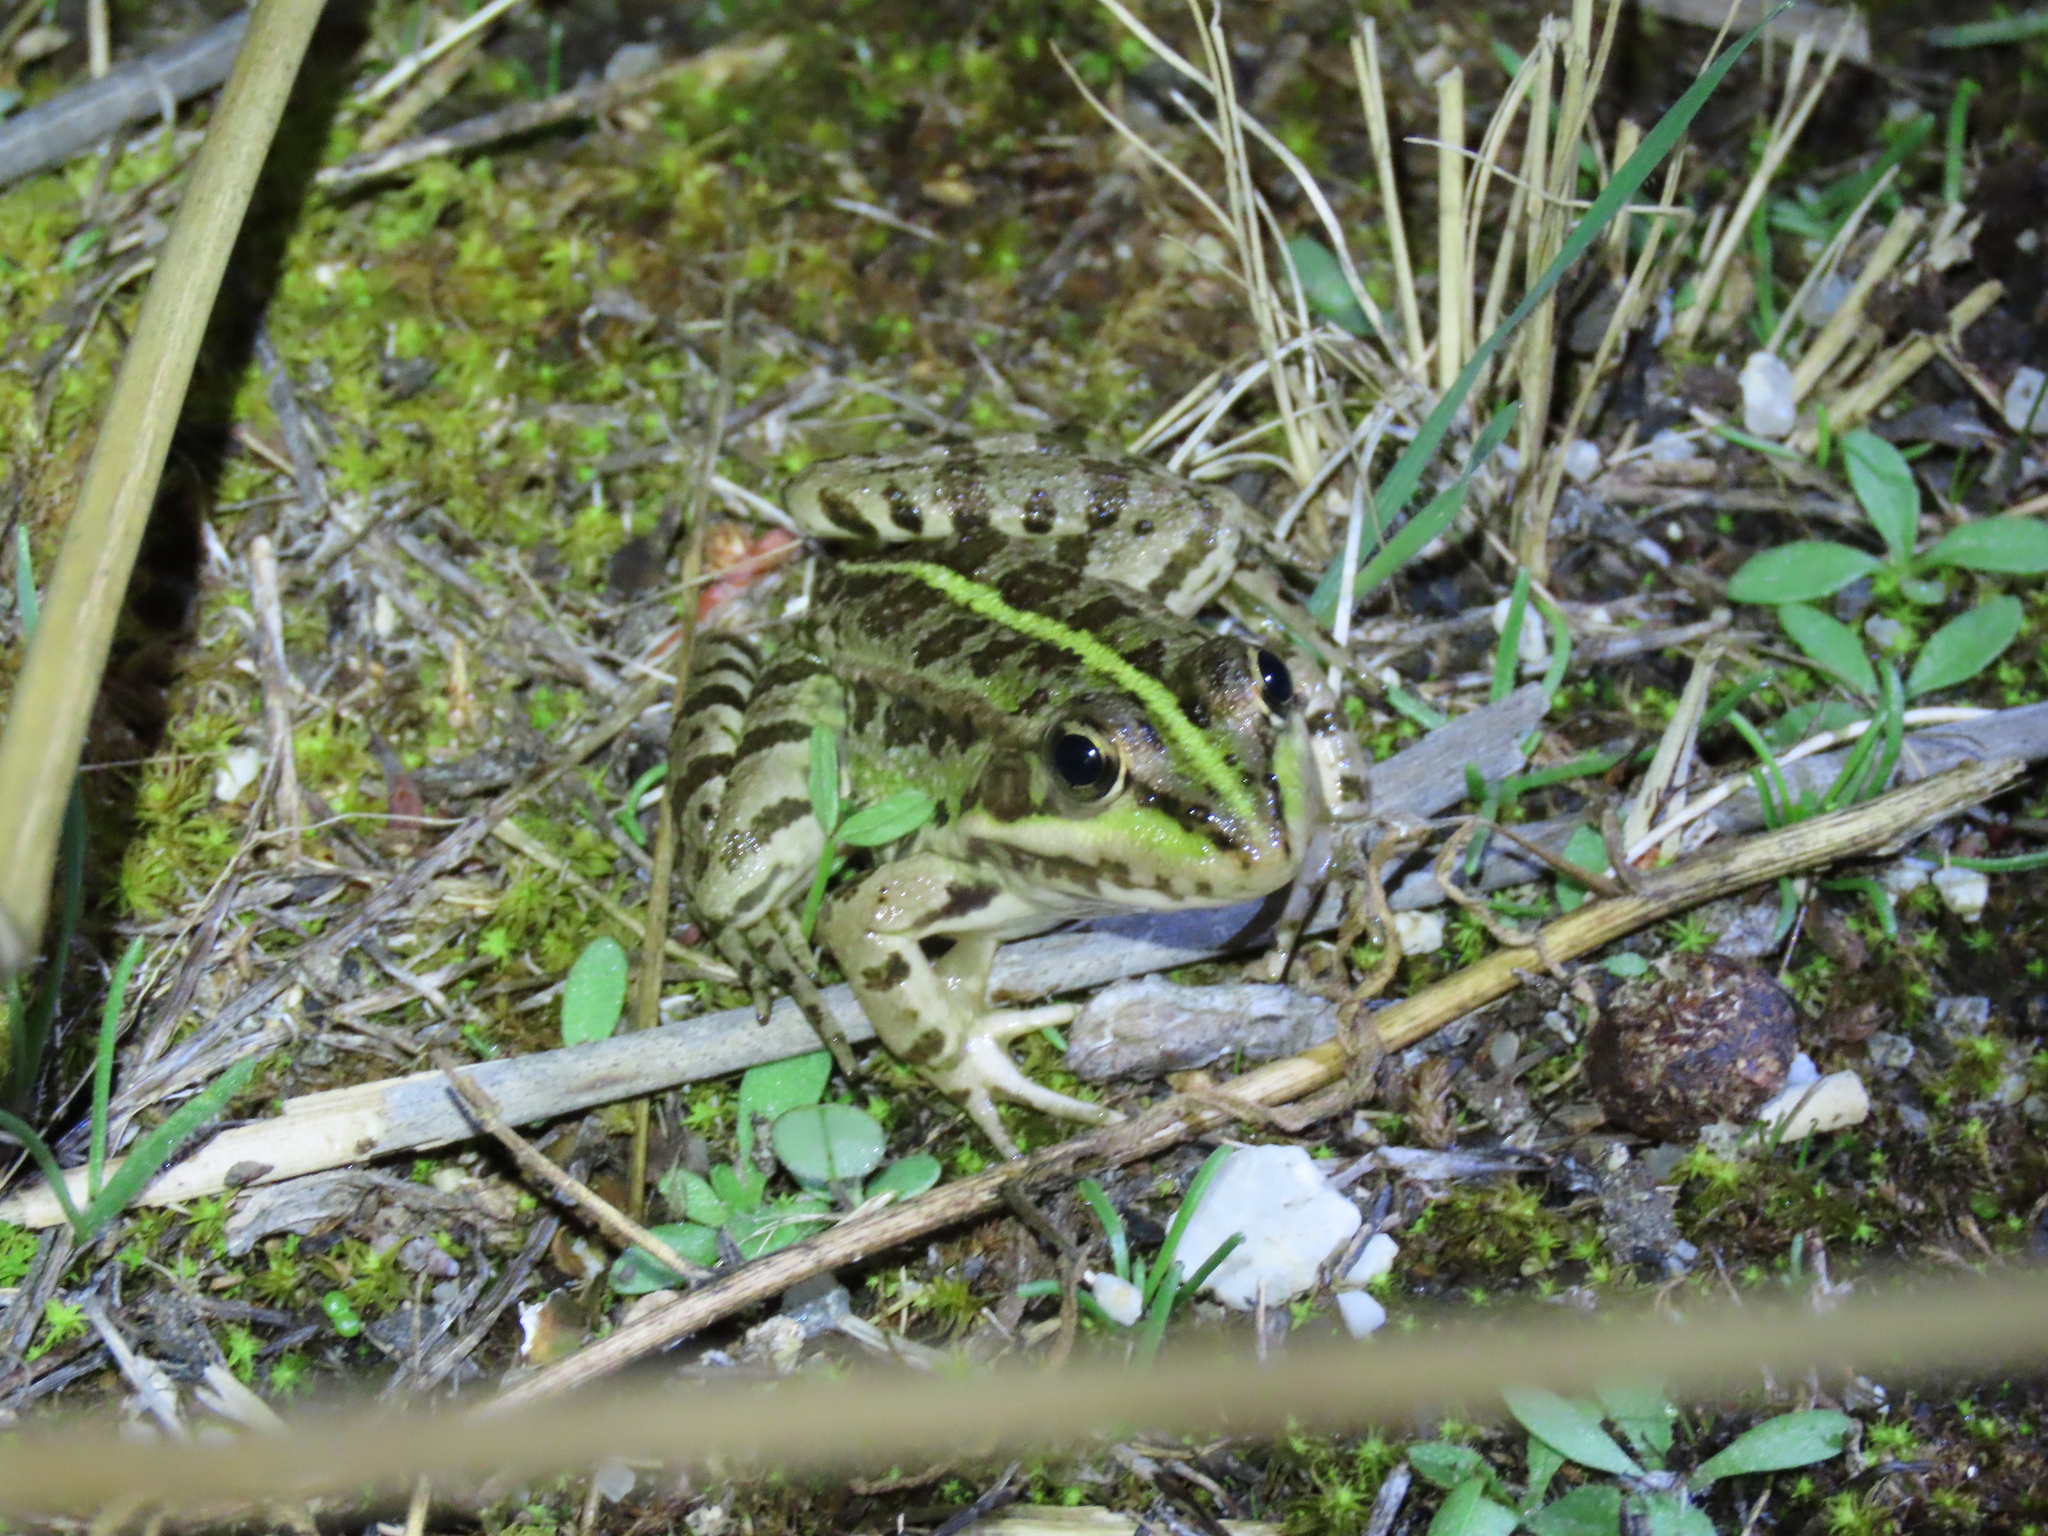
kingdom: Animalia
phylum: Chordata
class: Amphibia
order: Anura
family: Ranidae
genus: Pelophylax
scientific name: Pelophylax perezi
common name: Perez's frog
